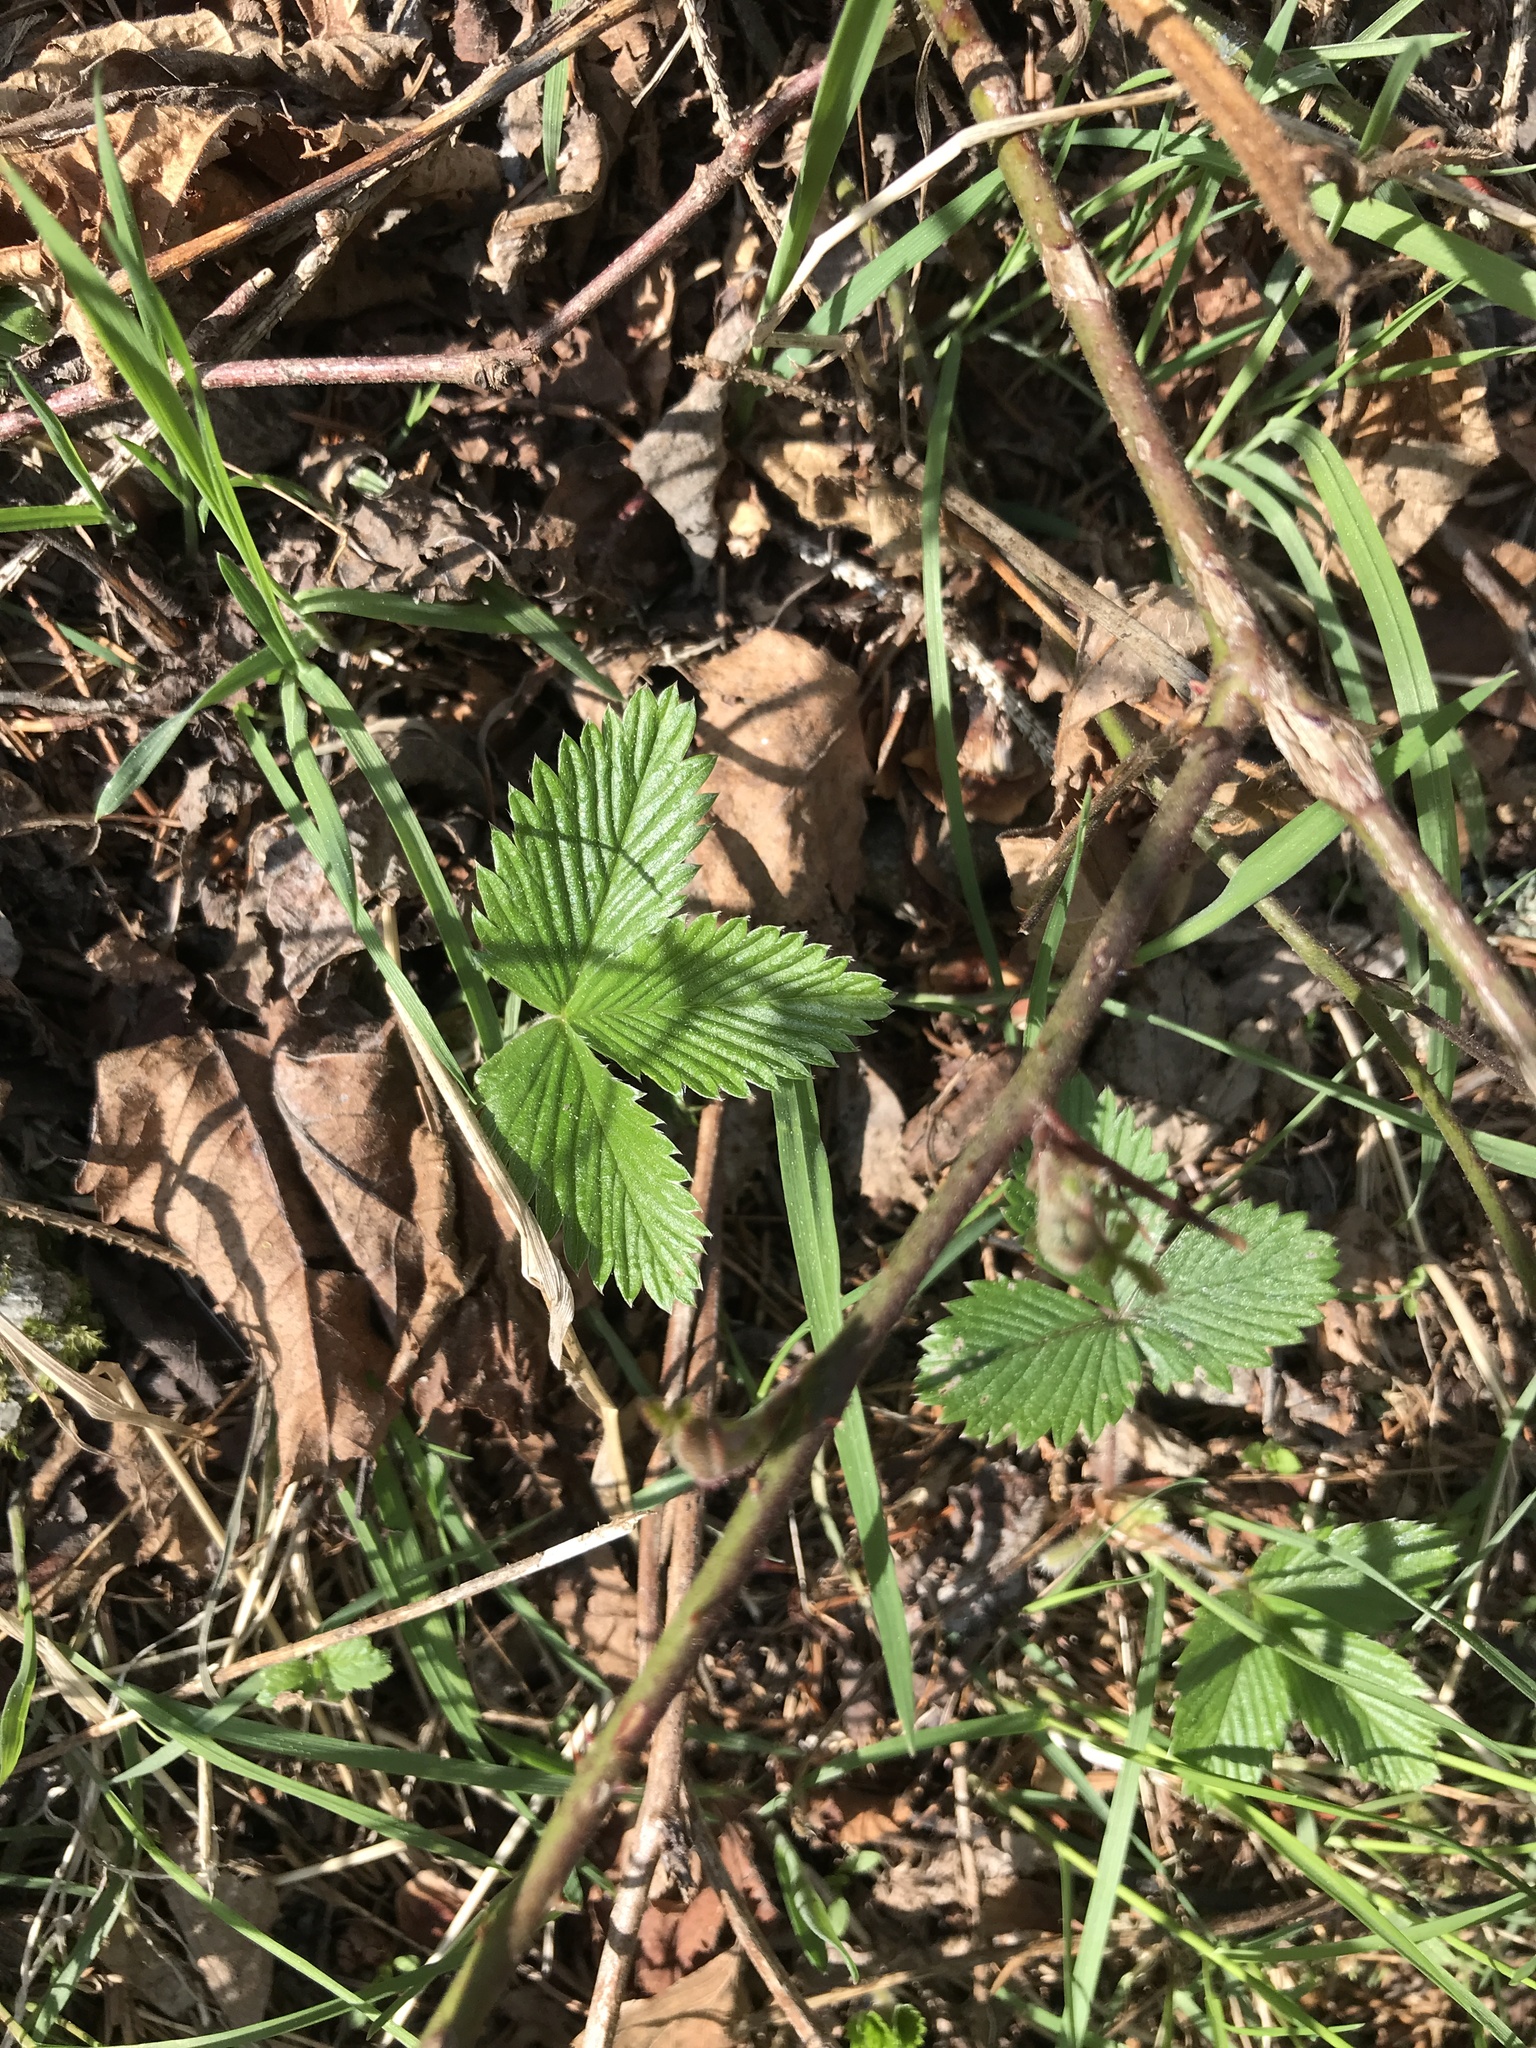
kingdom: Plantae
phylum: Tracheophyta
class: Magnoliopsida
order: Rosales
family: Rosaceae
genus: Fragaria
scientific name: Fragaria vesca
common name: Wild strawberry
